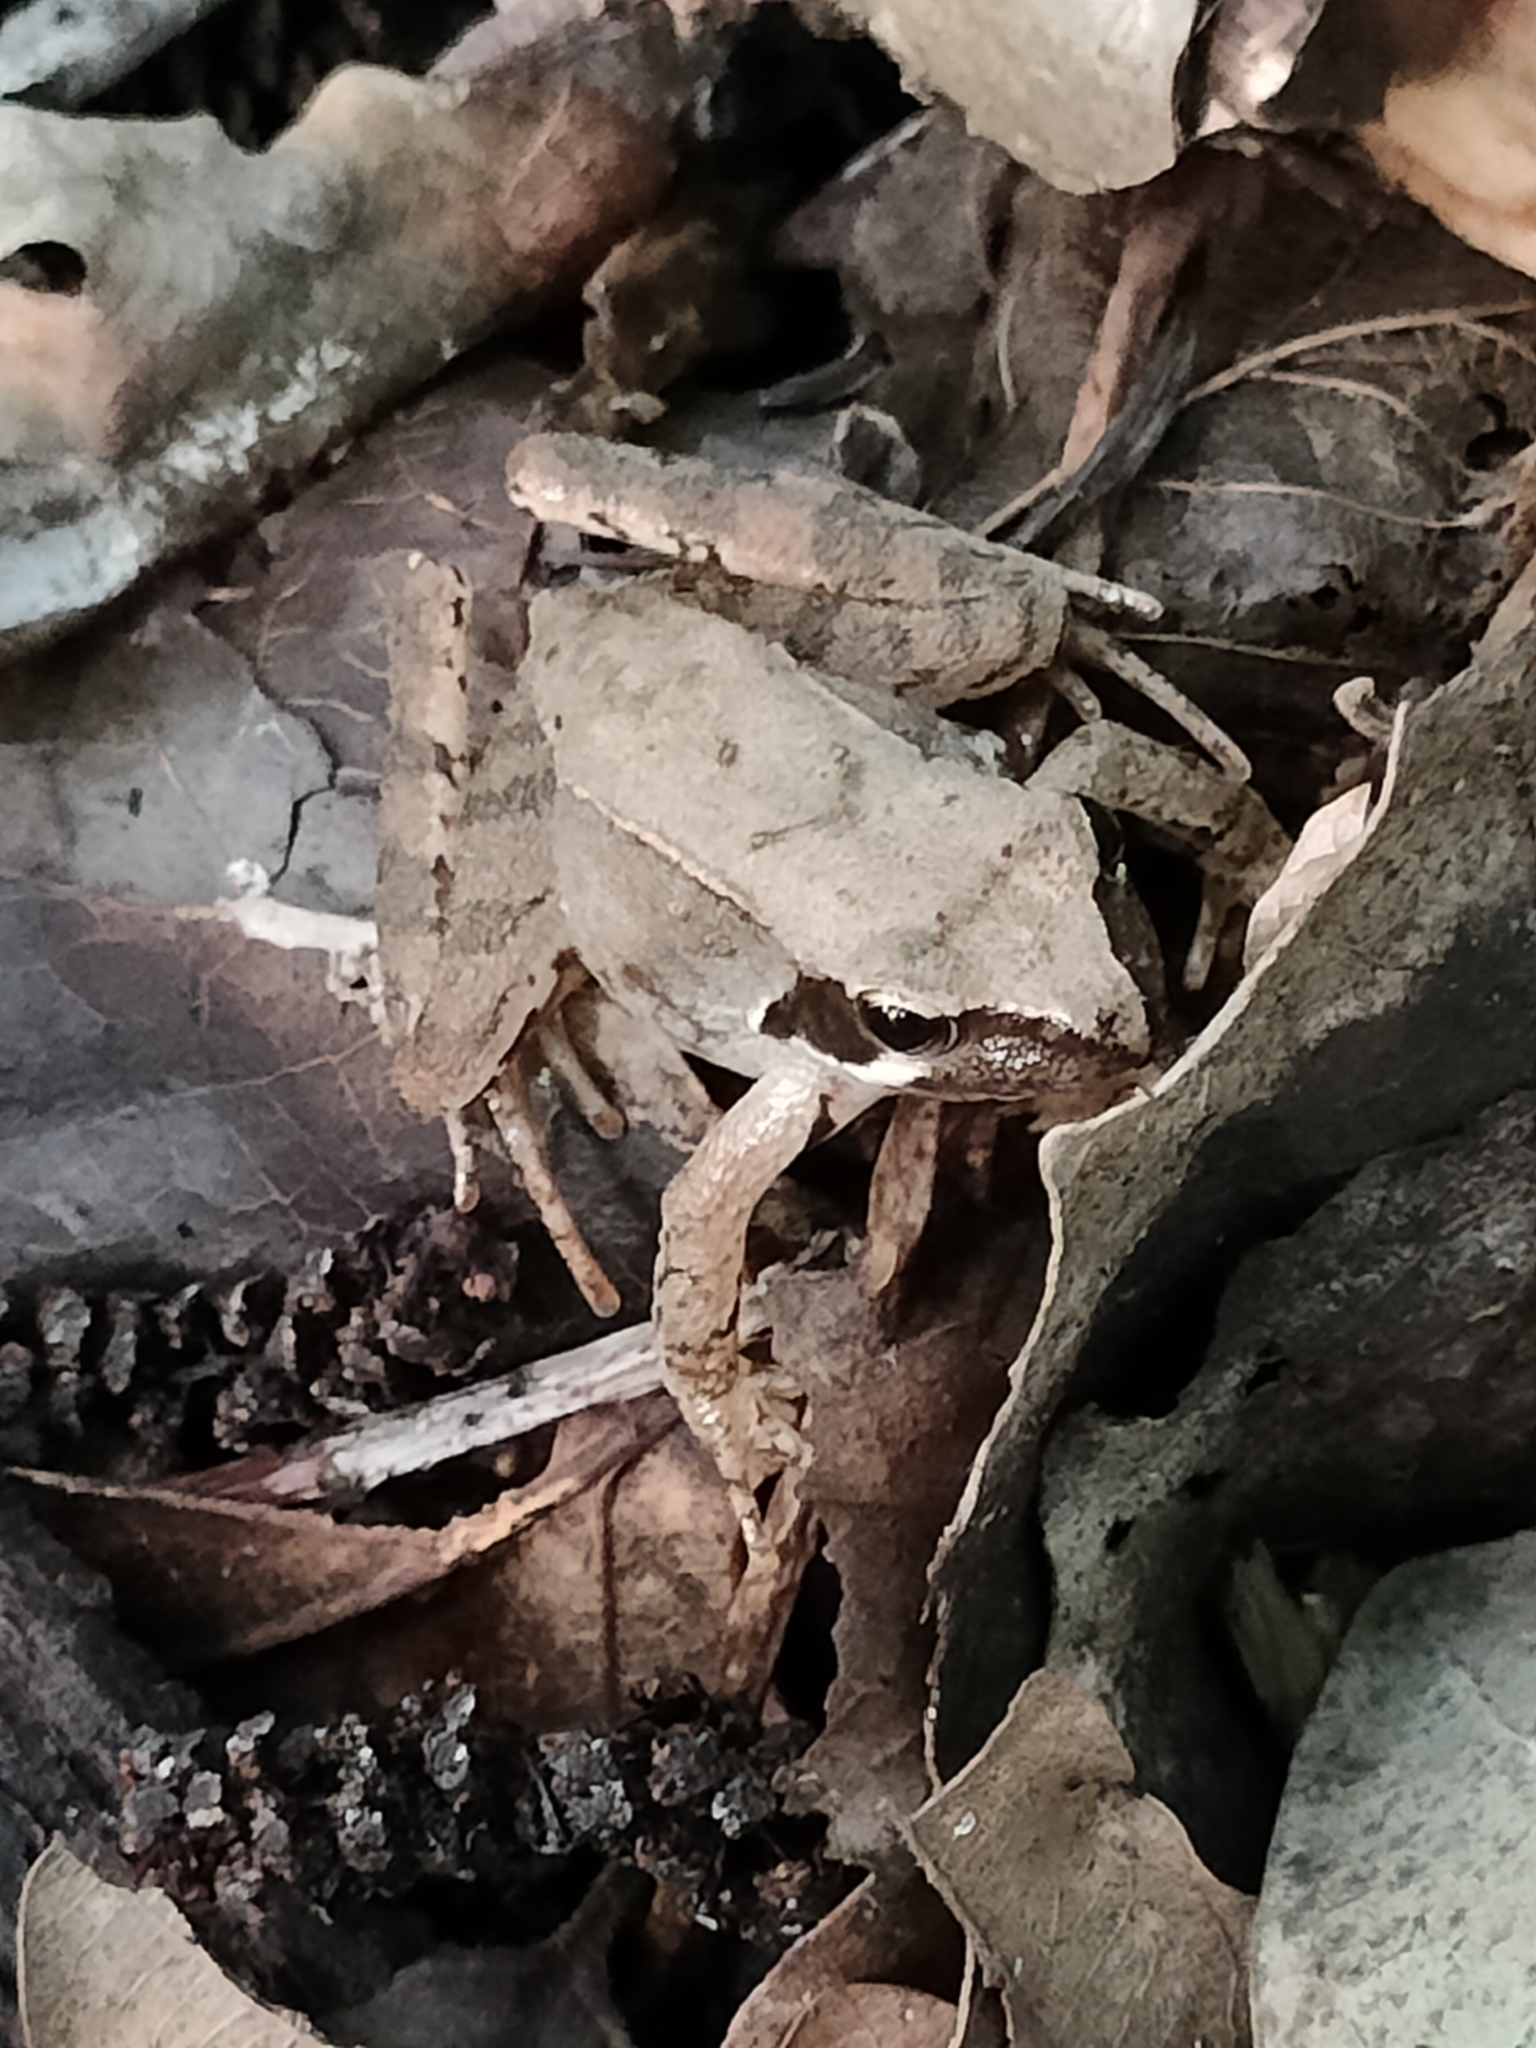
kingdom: Animalia
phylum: Chordata
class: Amphibia
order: Anura
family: Ranidae
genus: Rana
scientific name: Rana latastei
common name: Italian agile frog
